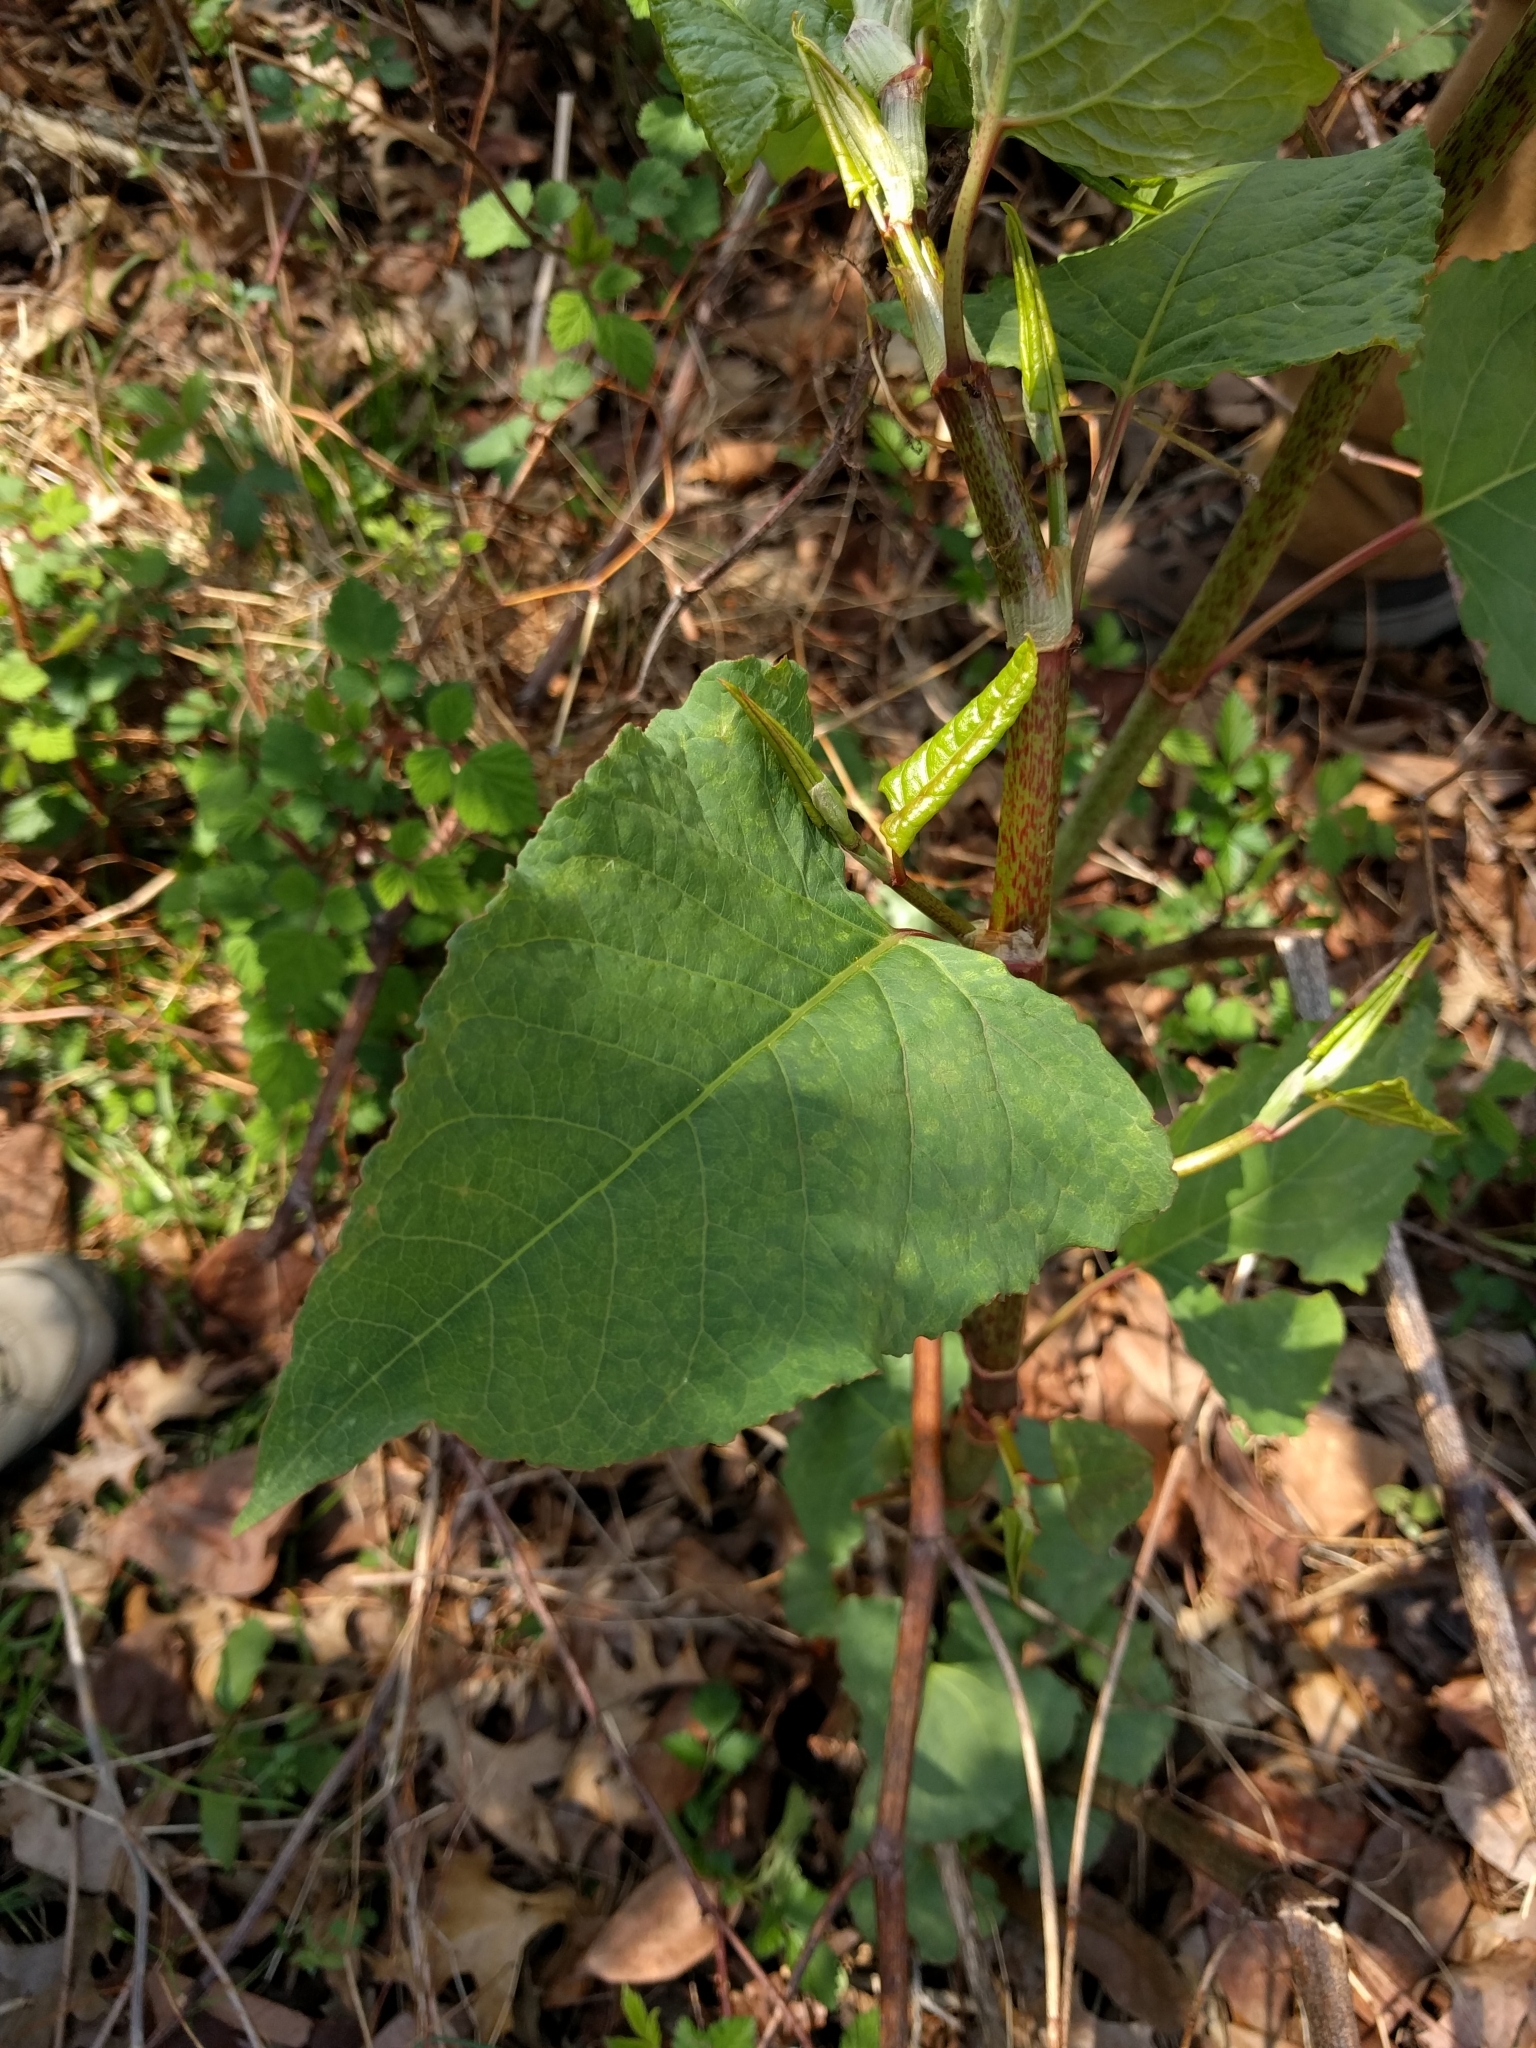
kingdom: Plantae
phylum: Tracheophyta
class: Magnoliopsida
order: Caryophyllales
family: Polygonaceae
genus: Reynoutria
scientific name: Reynoutria japonica
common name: Japanese knotweed
